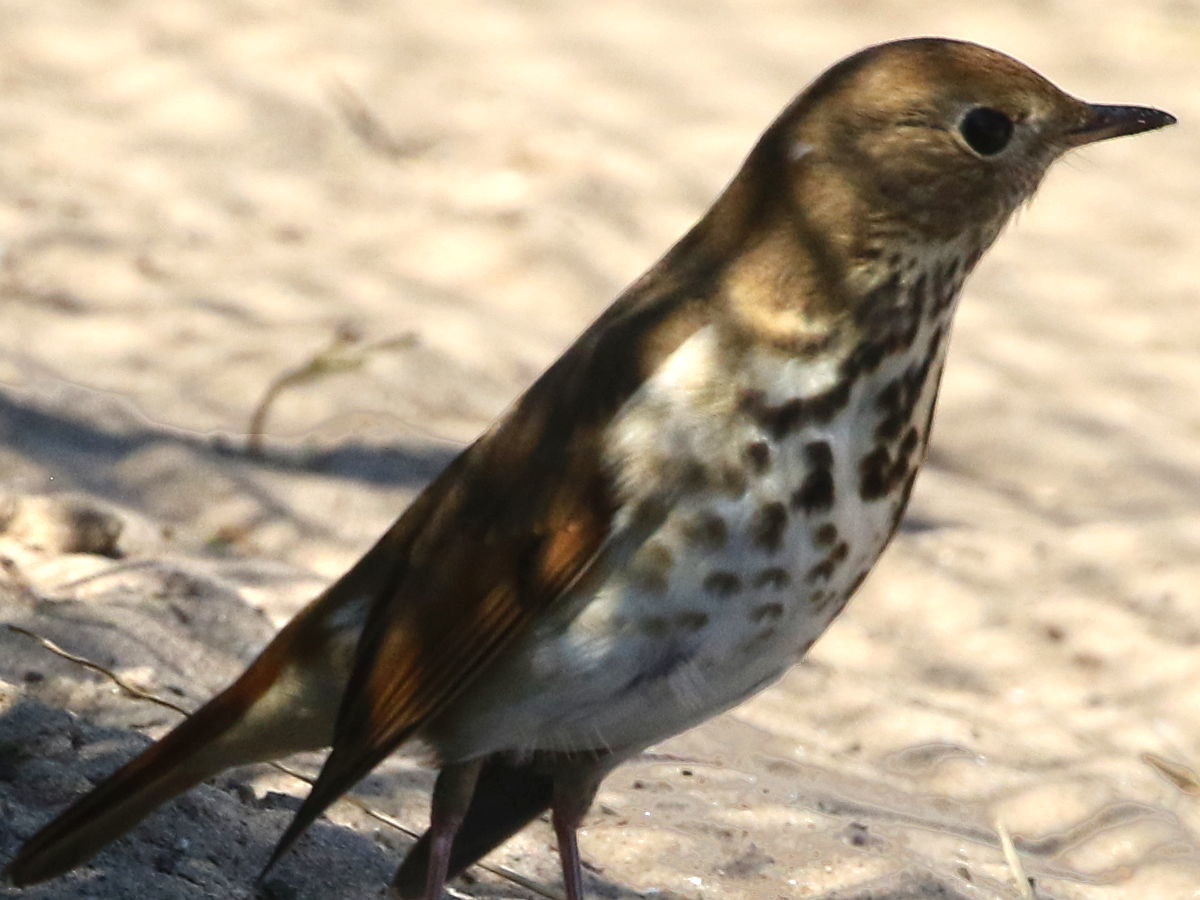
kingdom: Animalia
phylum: Chordata
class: Aves
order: Passeriformes
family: Turdidae
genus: Catharus
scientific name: Catharus guttatus
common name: Hermit thrush
